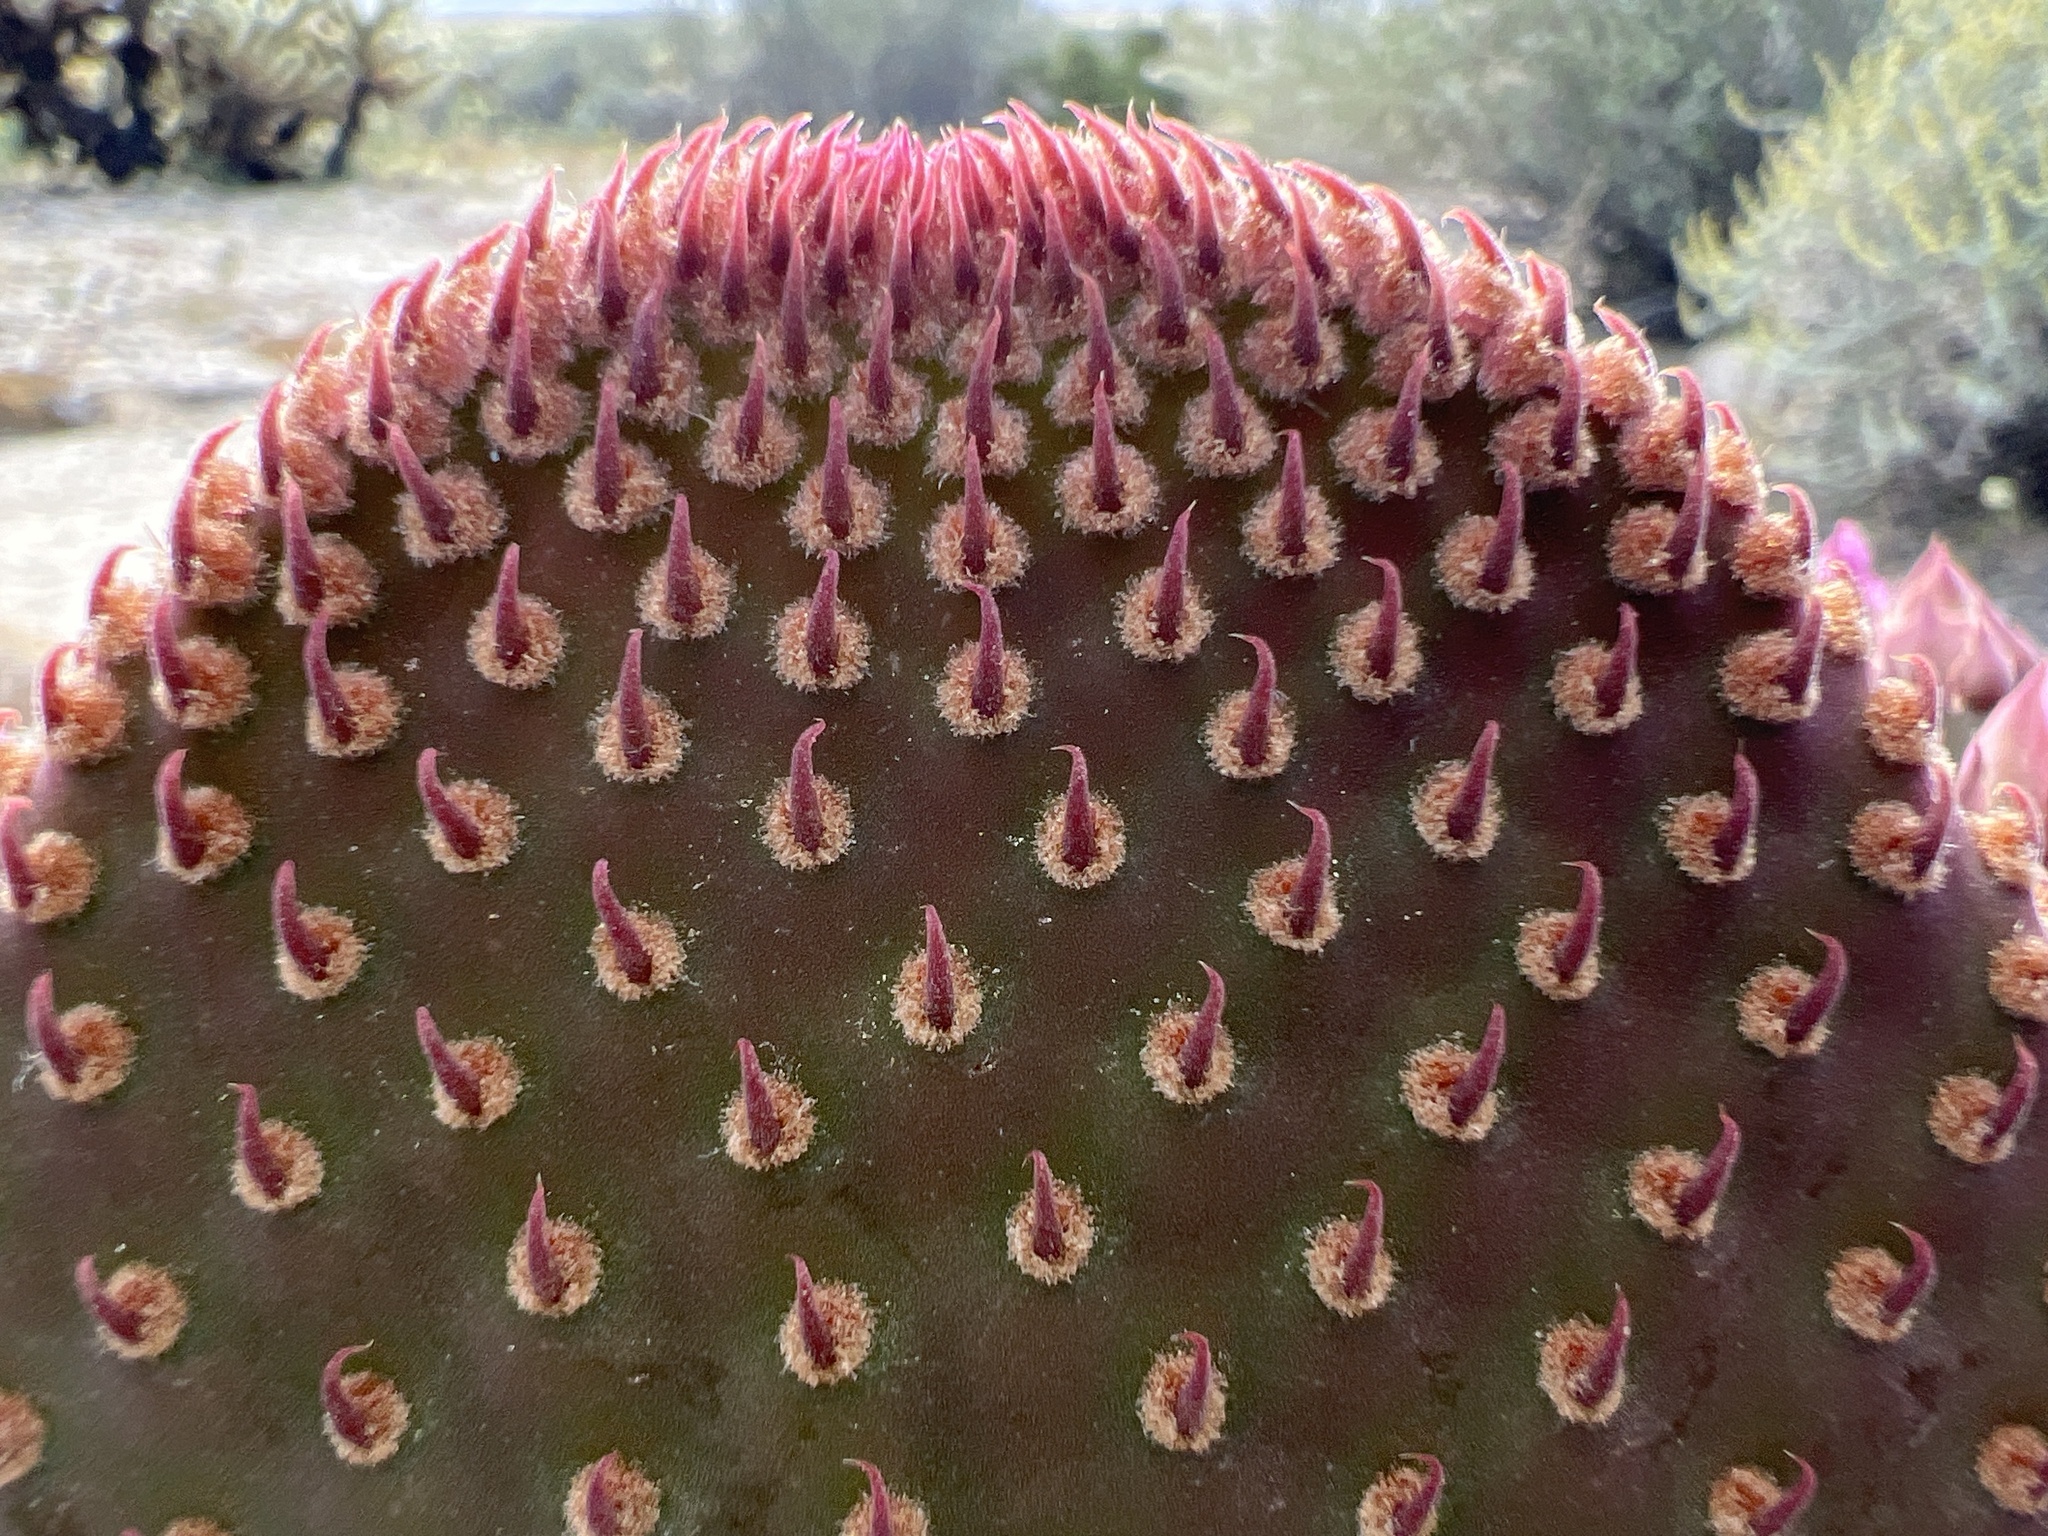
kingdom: Plantae
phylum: Tracheophyta
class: Magnoliopsida
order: Caryophyllales
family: Cactaceae
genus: Opuntia
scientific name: Opuntia basilaris
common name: Beavertail prickly-pear
